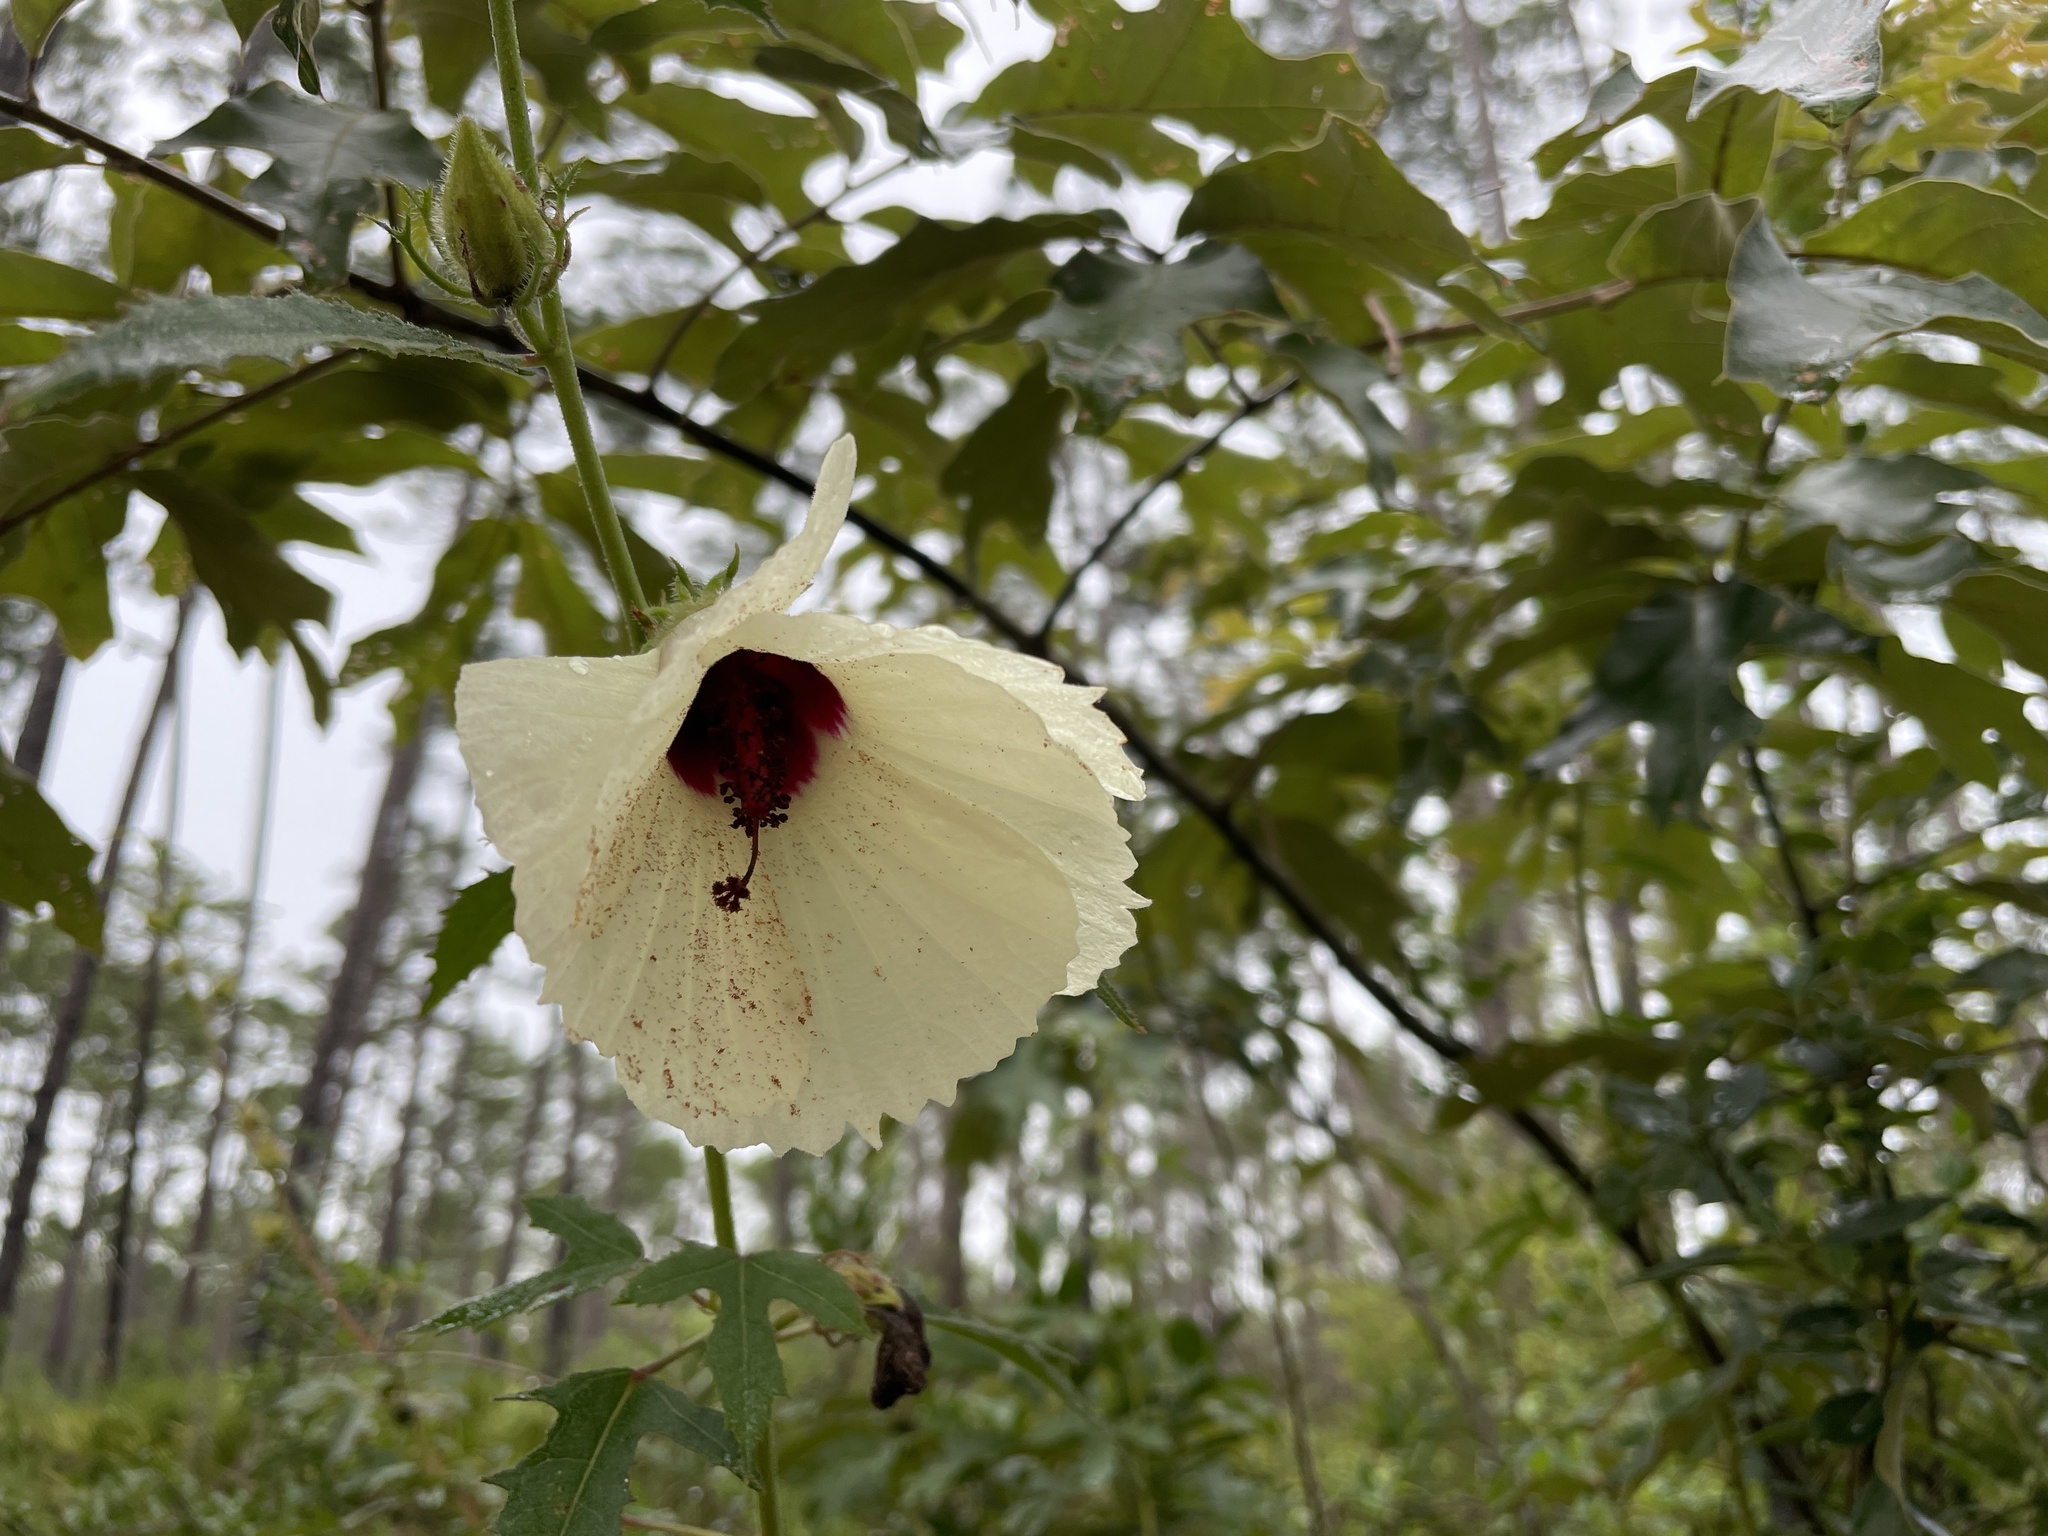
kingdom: Plantae
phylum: Tracheophyta
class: Magnoliopsida
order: Malvales
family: Malvaceae
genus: Hibiscus
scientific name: Hibiscus aculeatus
